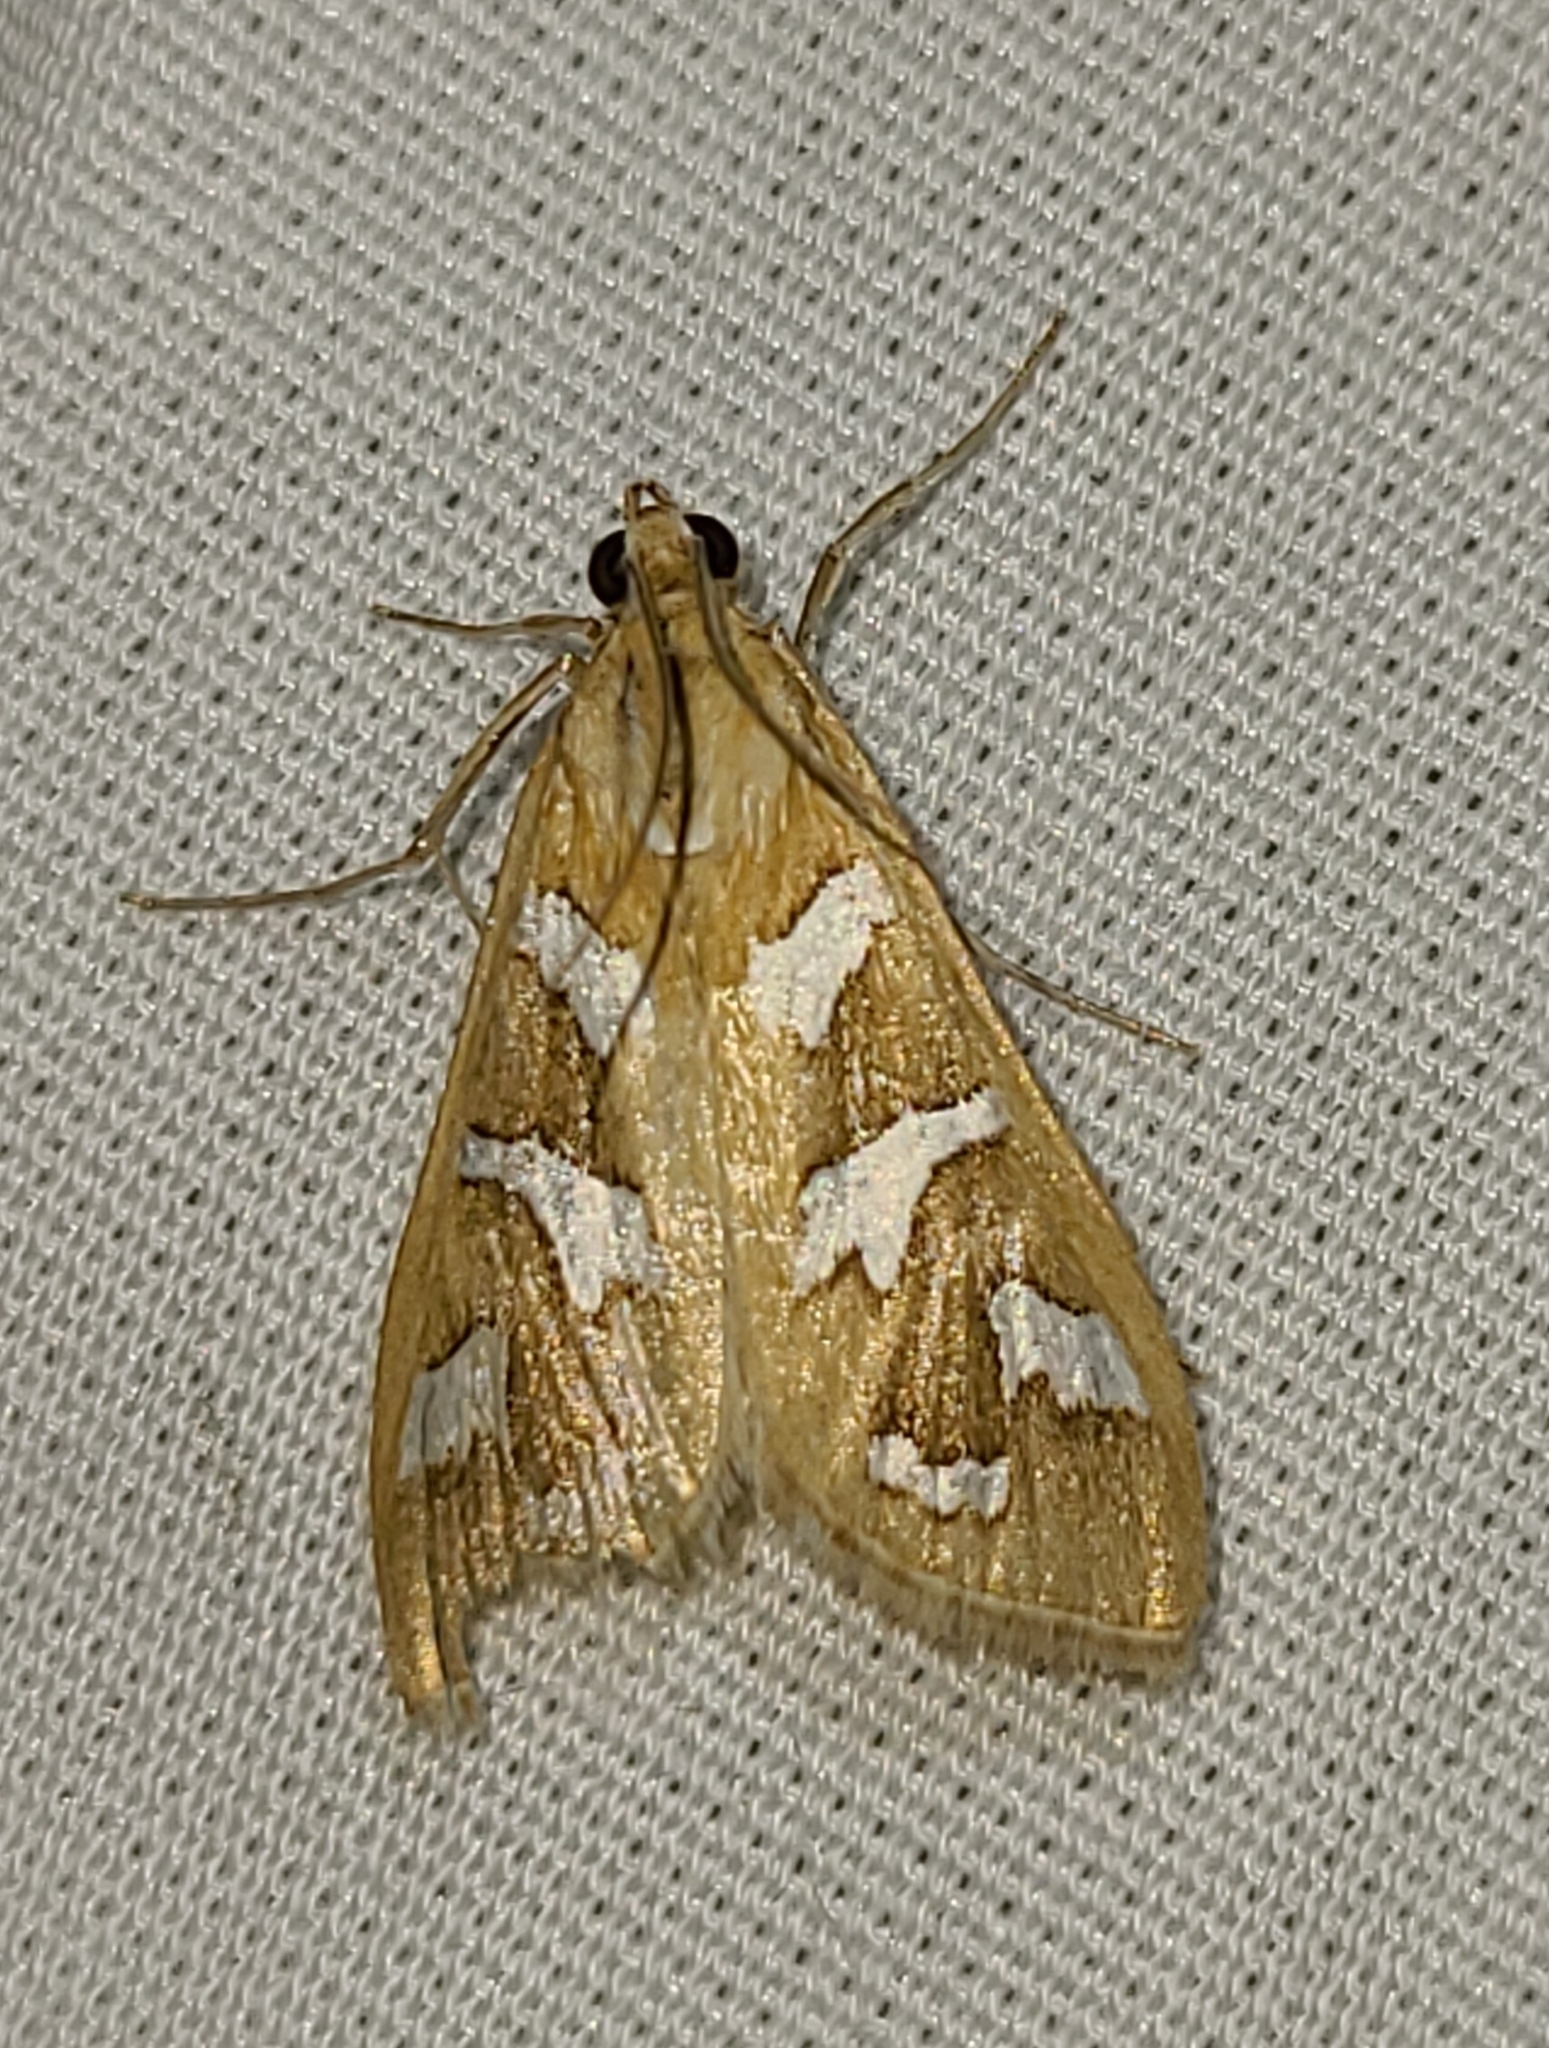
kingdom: Animalia
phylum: Arthropoda
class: Insecta
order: Lepidoptera
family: Crambidae
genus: Diastictis
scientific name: Diastictis fracturalis
